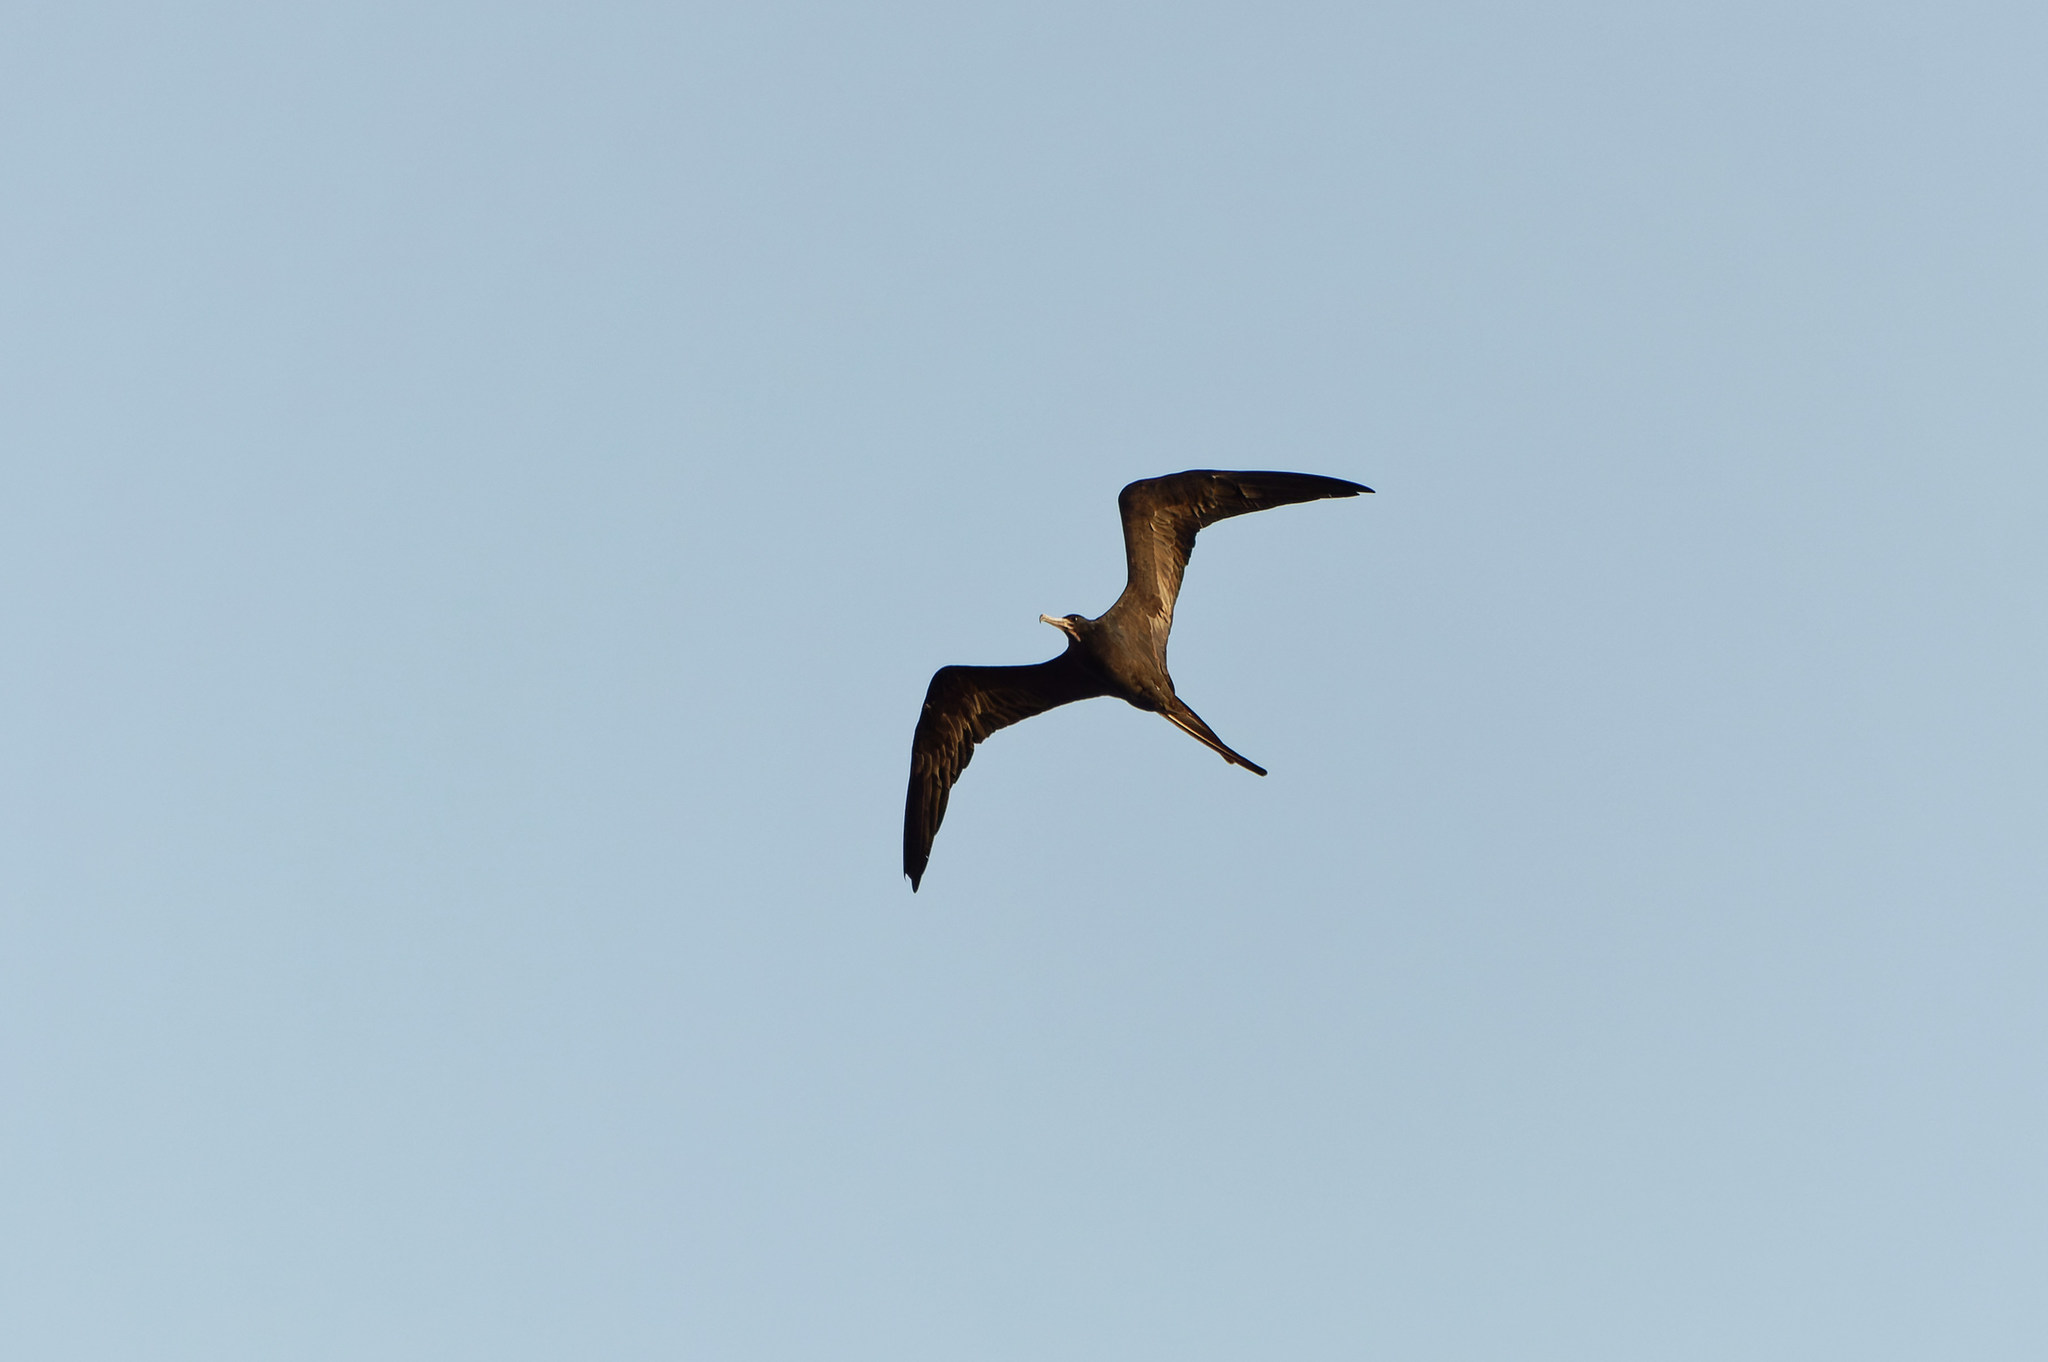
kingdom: Animalia
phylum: Chordata
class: Aves
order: Suliformes
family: Fregatidae
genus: Fregata
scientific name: Fregata magnificens
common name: Magnificent frigatebird
